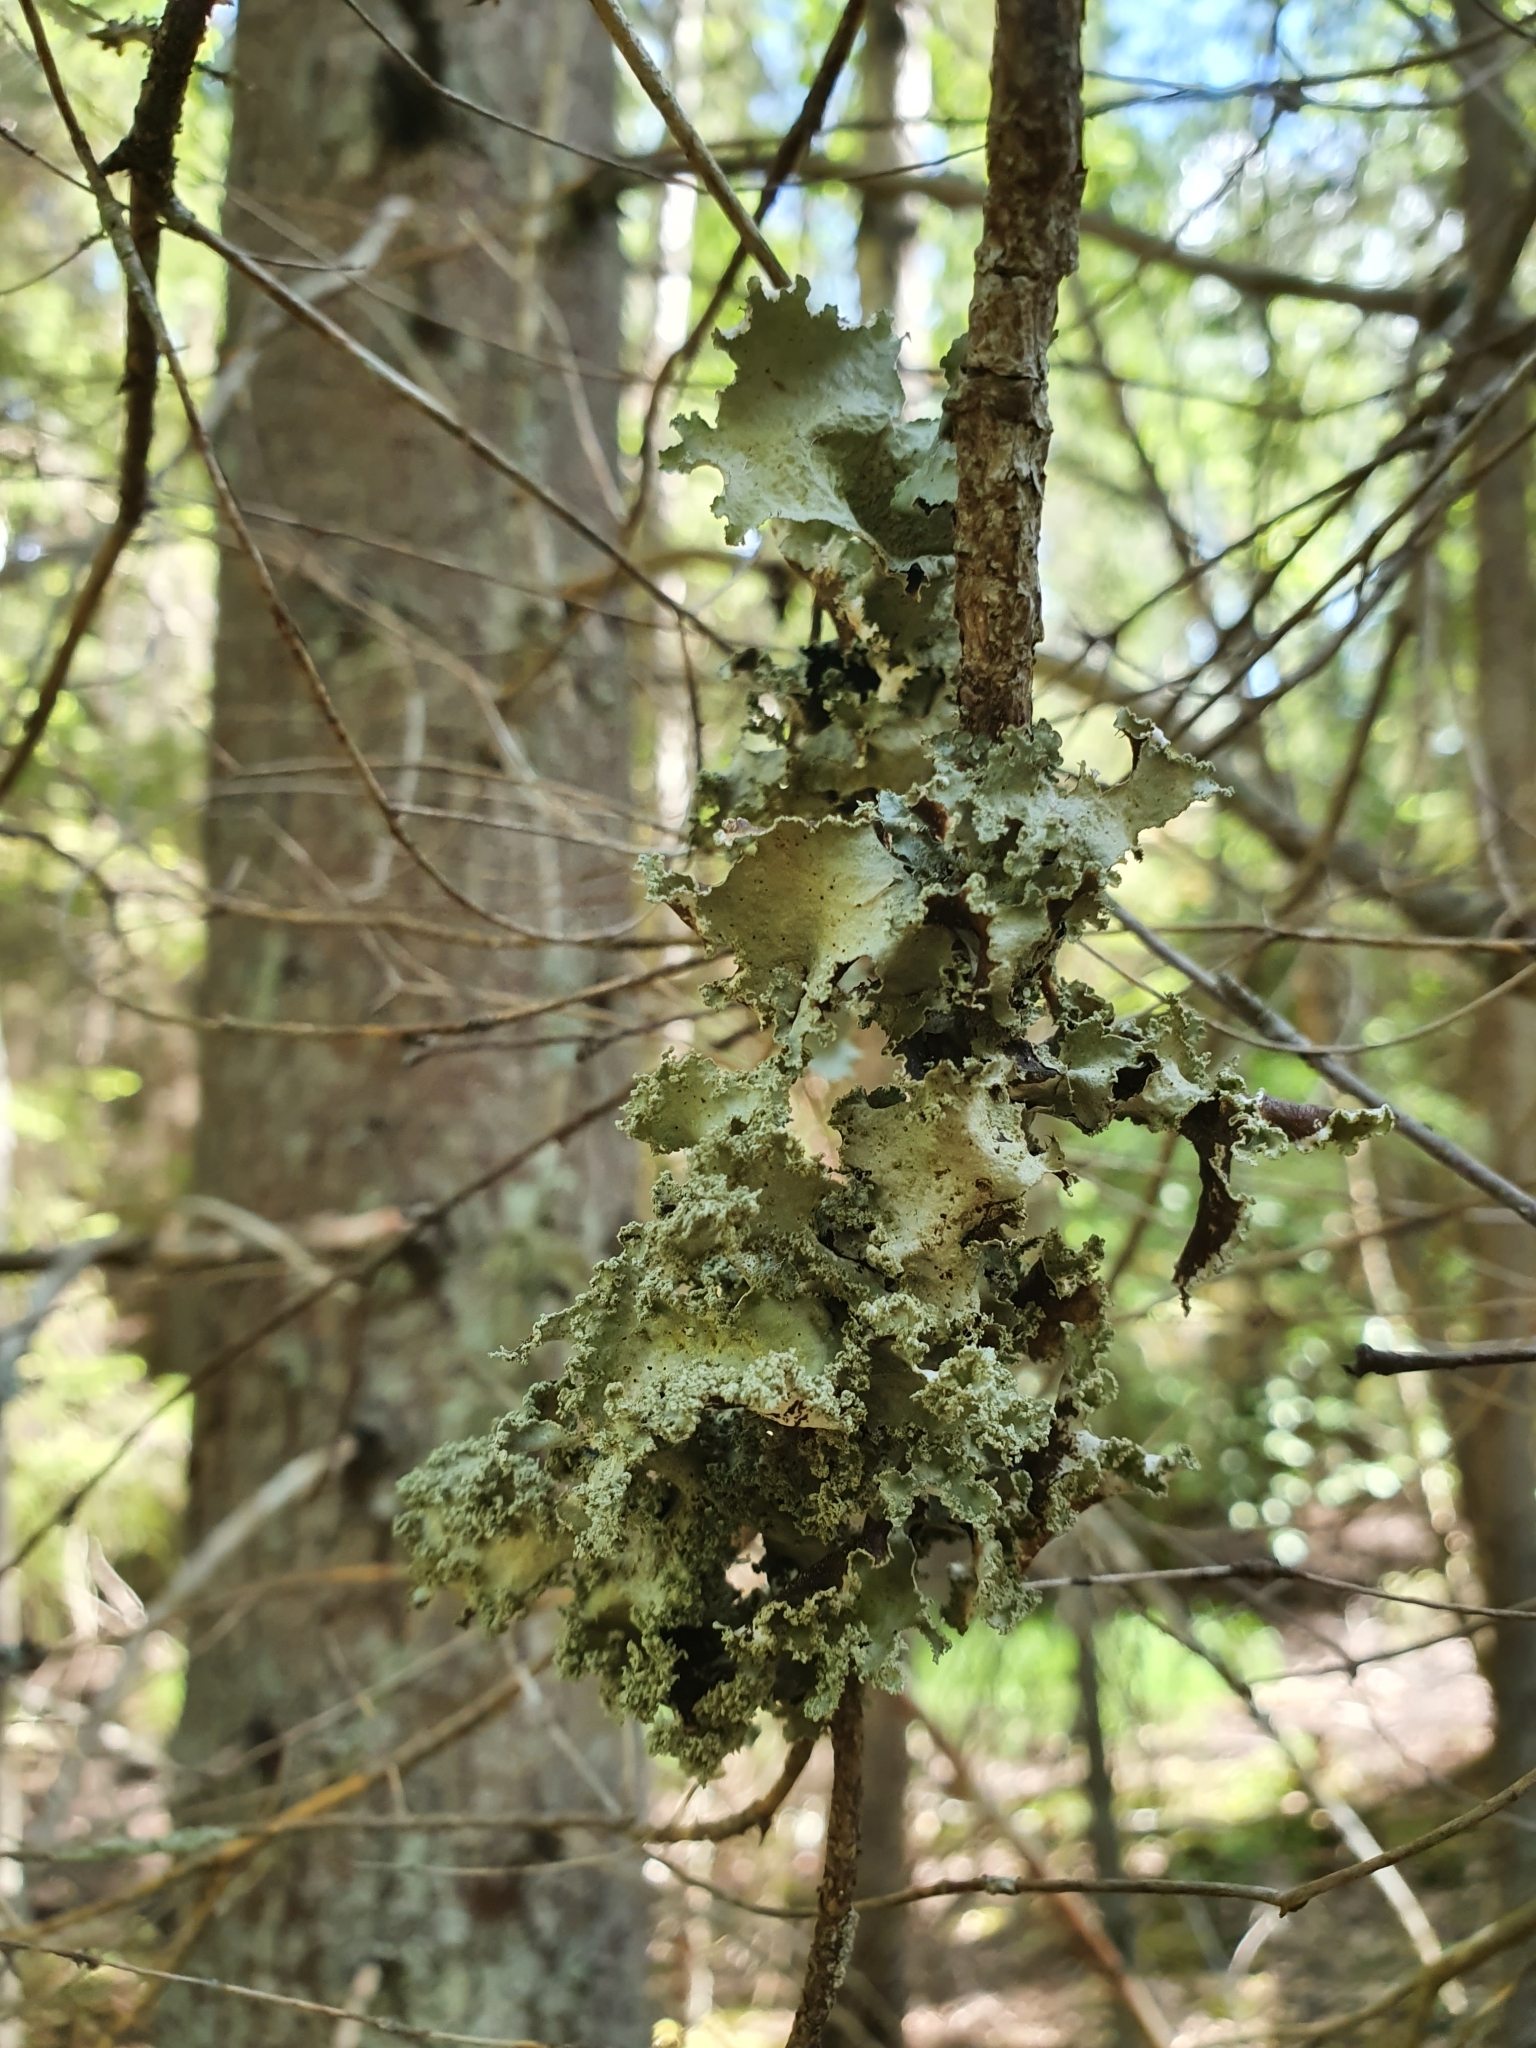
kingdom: Fungi
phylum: Ascomycota
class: Lecanoromycetes
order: Lecanorales
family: Parmeliaceae
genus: Platismatia
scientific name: Platismatia glauca
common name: Varied rag lichen
